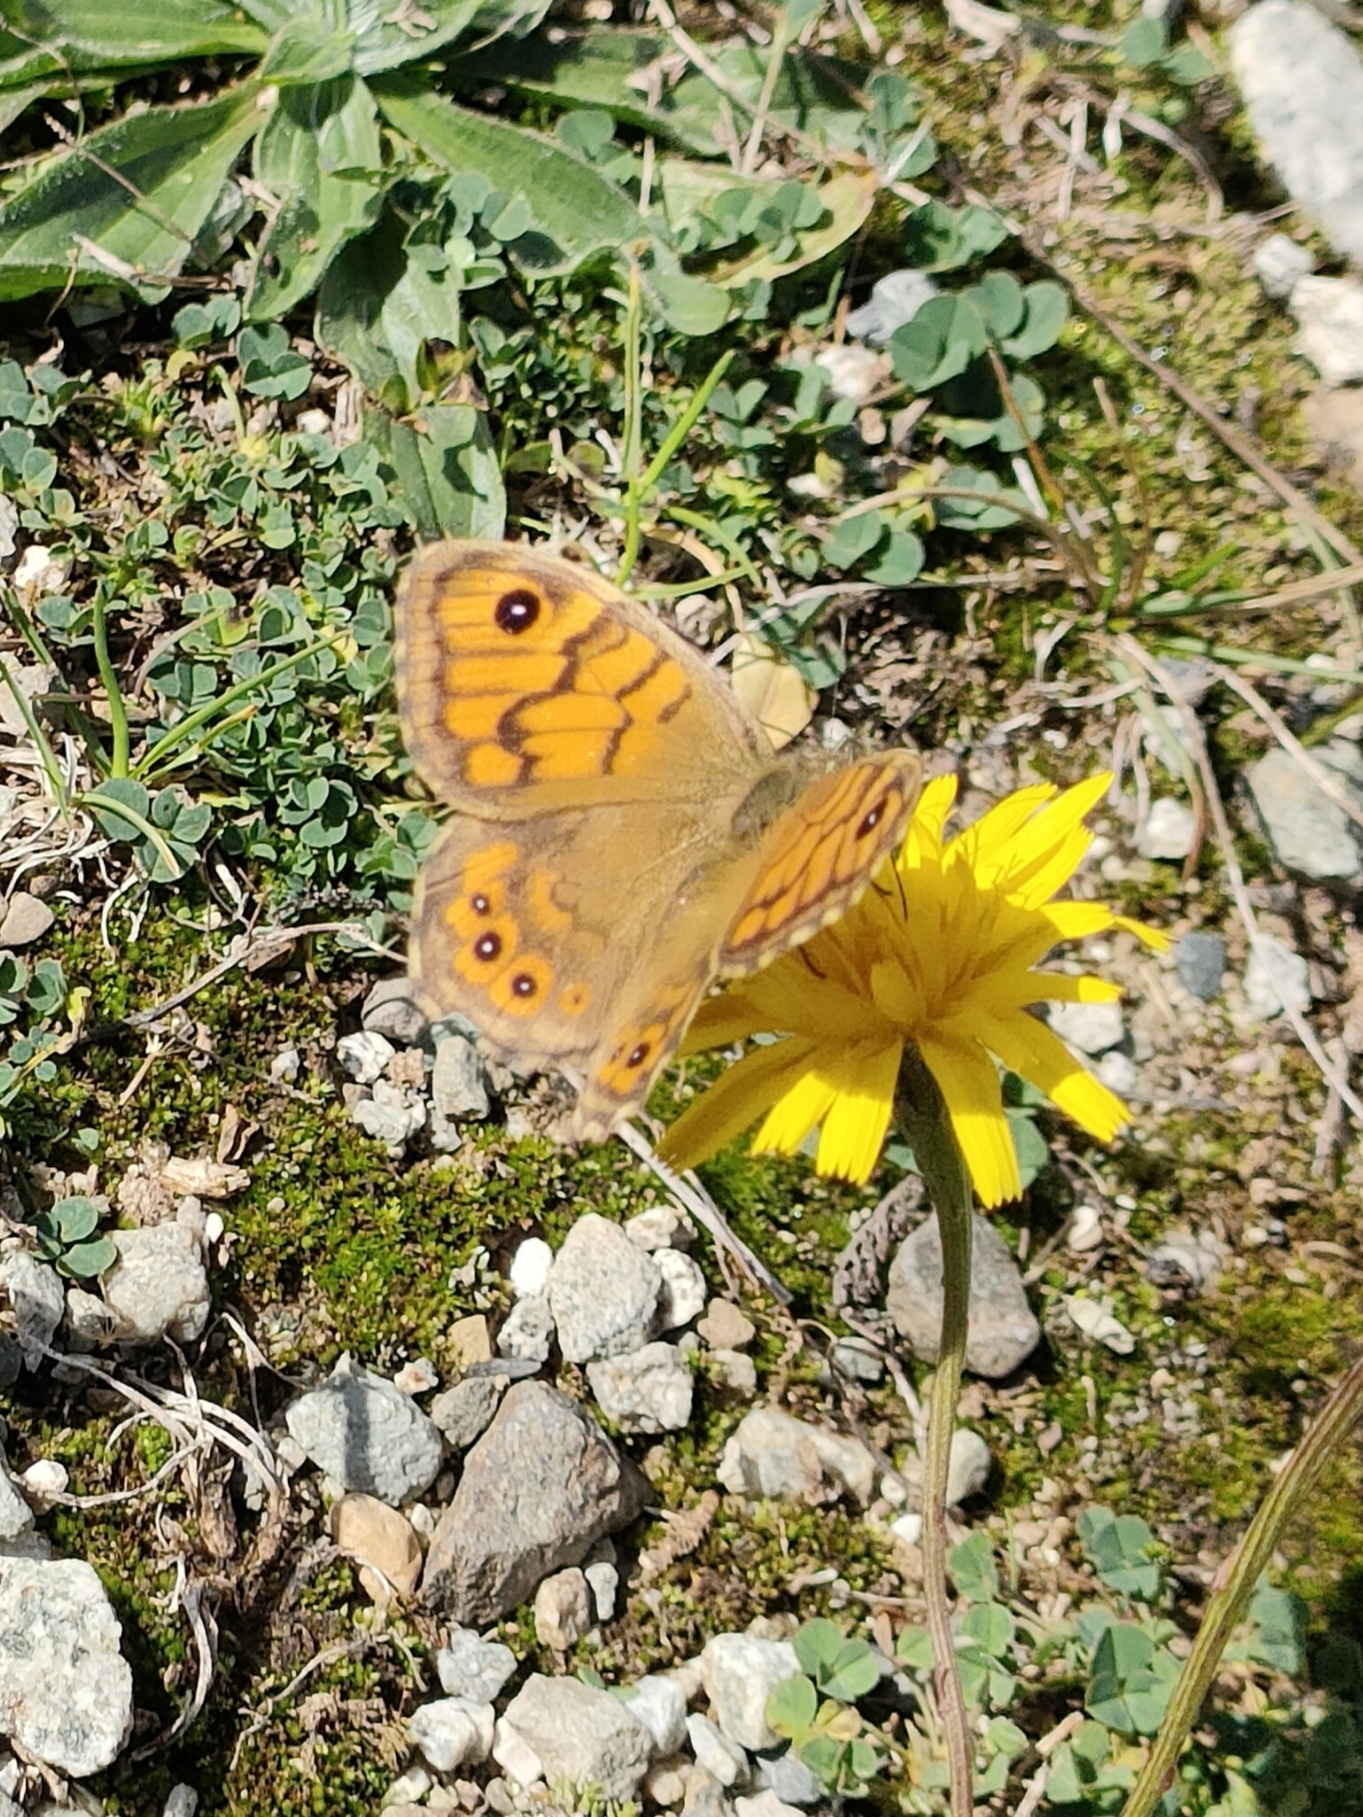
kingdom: Animalia
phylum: Arthropoda
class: Insecta
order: Lepidoptera
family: Nymphalidae
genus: Pararge
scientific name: Pararge Lasiommata megera
